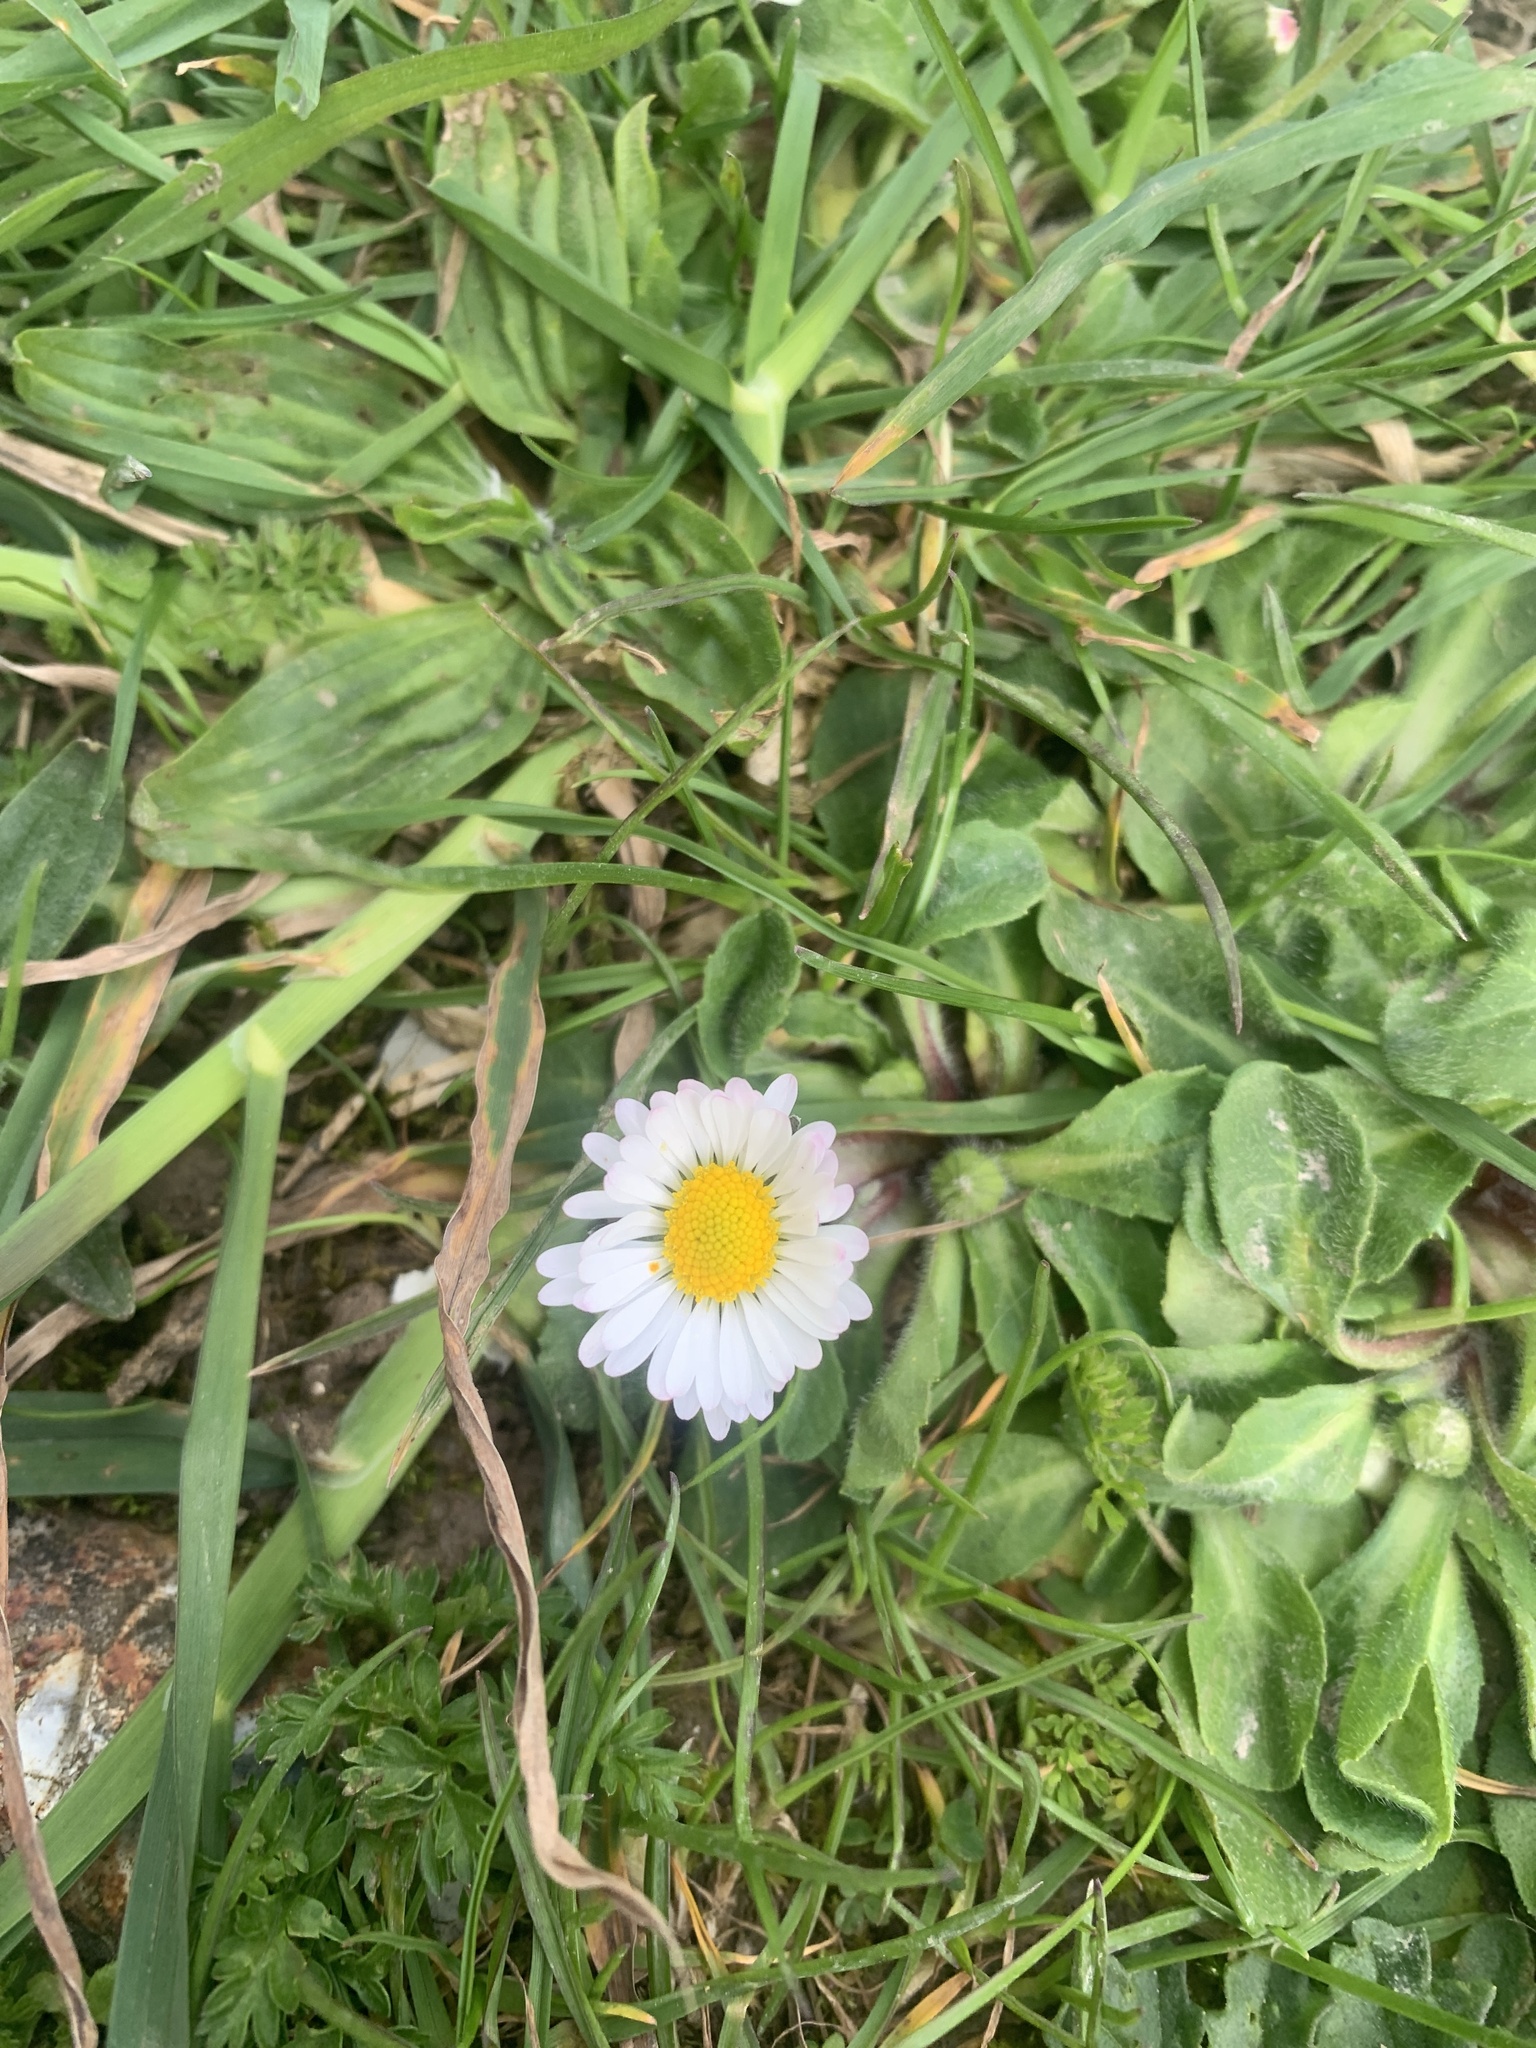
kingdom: Plantae
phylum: Tracheophyta
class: Magnoliopsida
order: Asterales
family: Asteraceae
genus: Bellis
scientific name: Bellis perennis
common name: Lawndaisy
